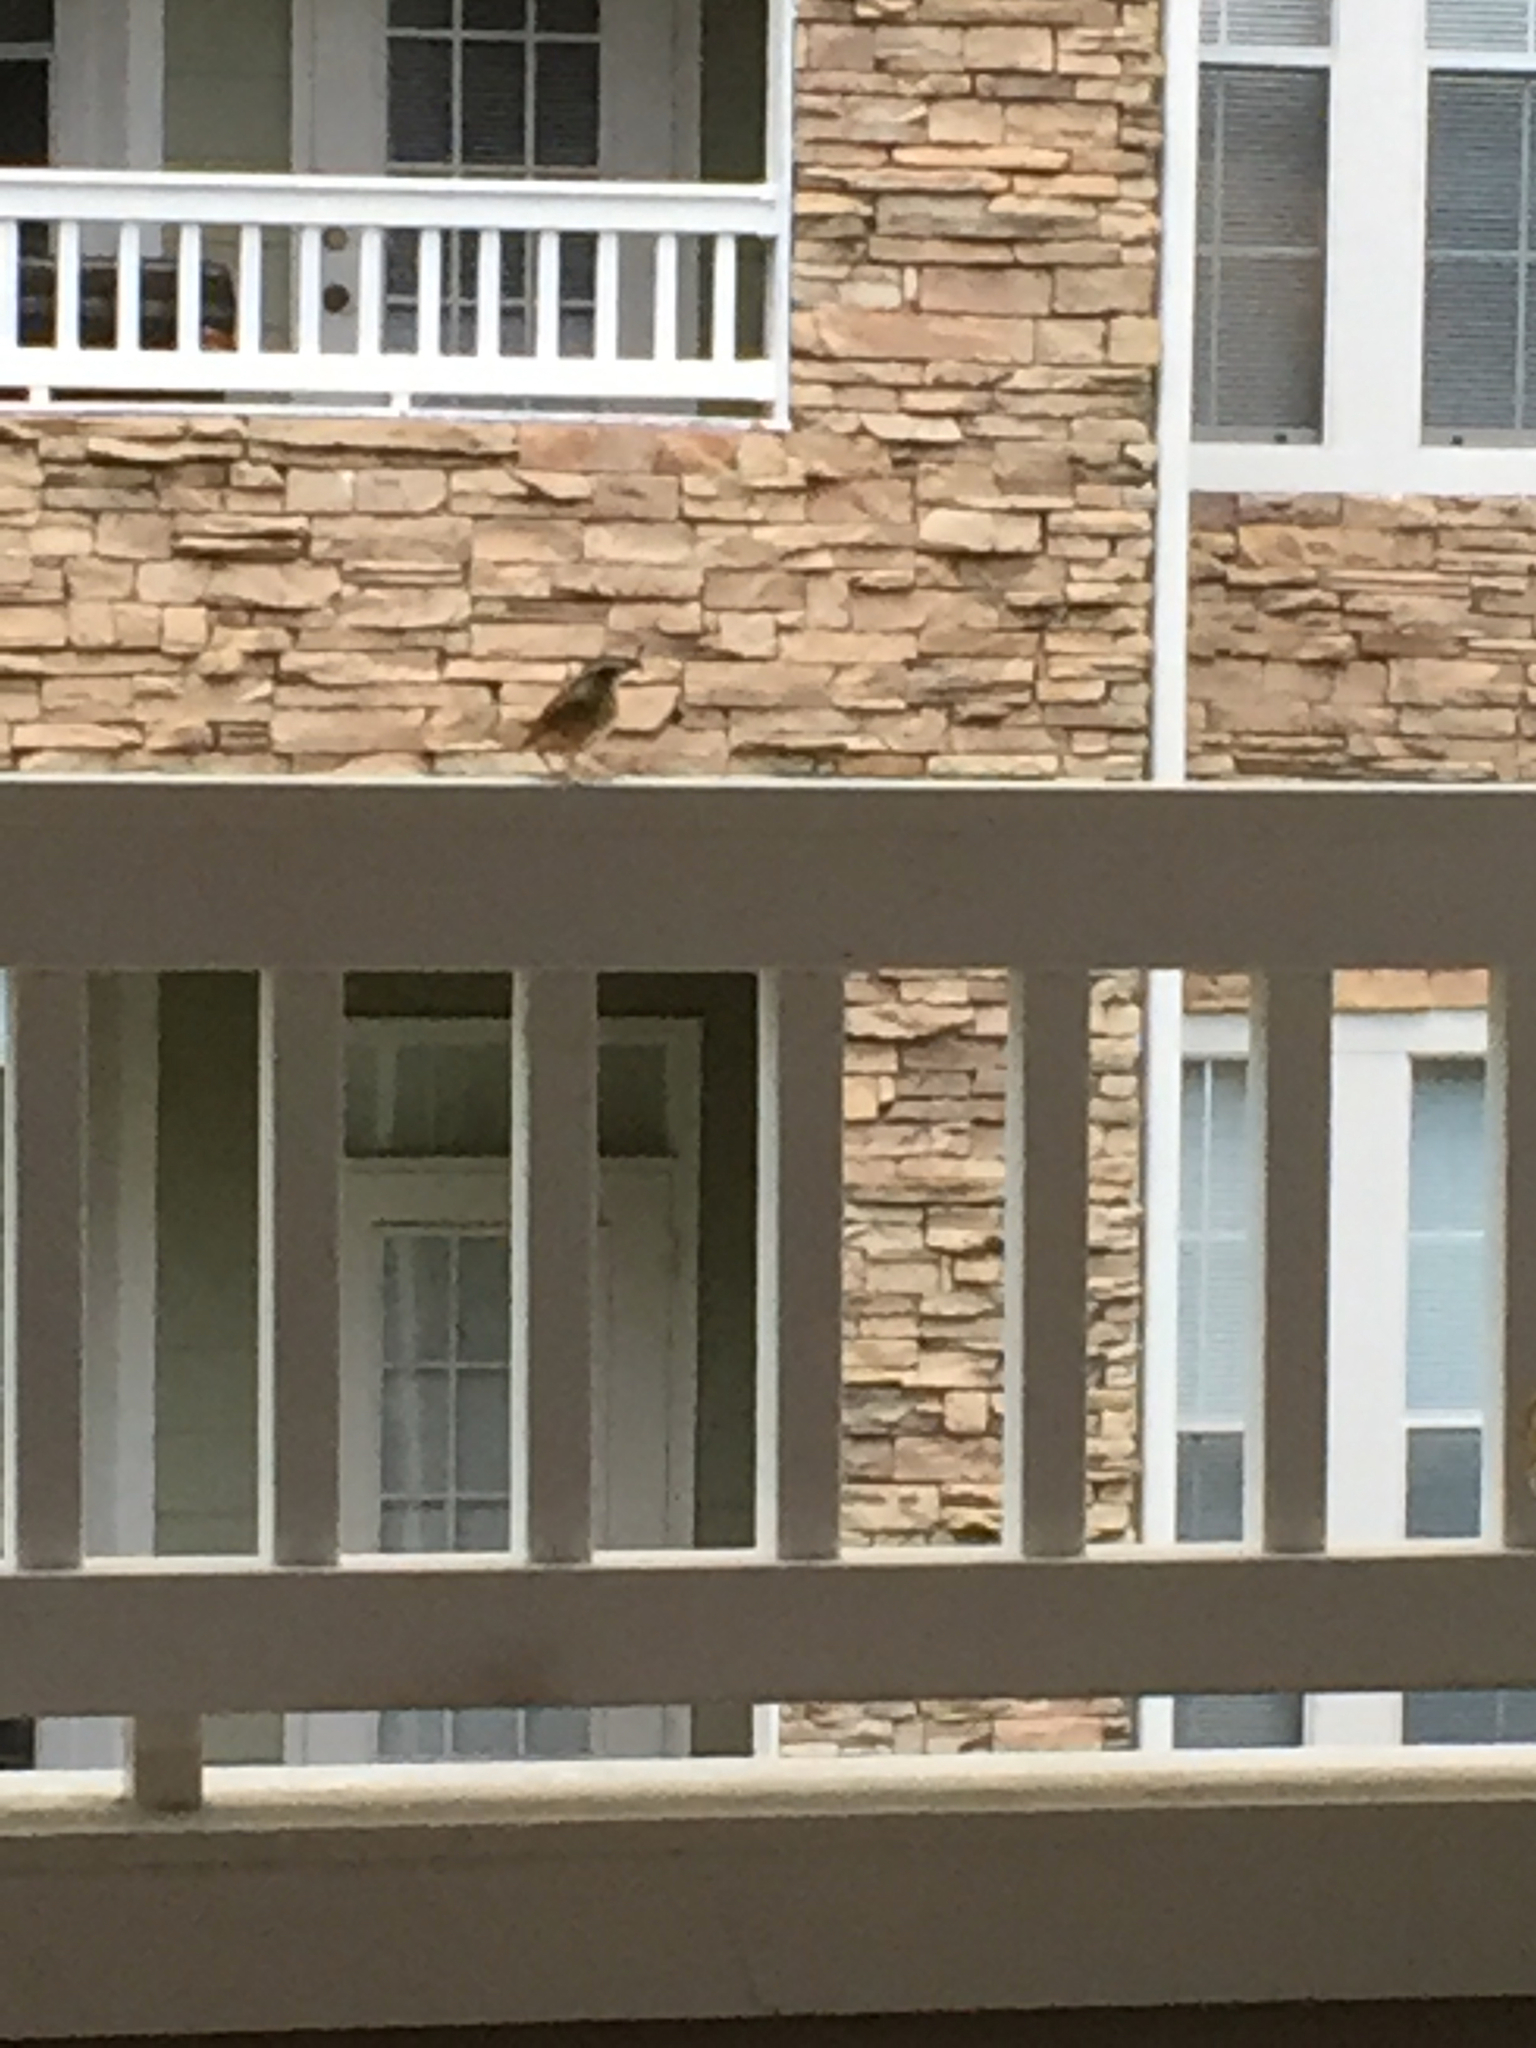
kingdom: Animalia
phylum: Chordata
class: Aves
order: Passeriformes
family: Troglodytidae
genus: Thryothorus
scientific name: Thryothorus ludovicianus
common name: Carolina wren
